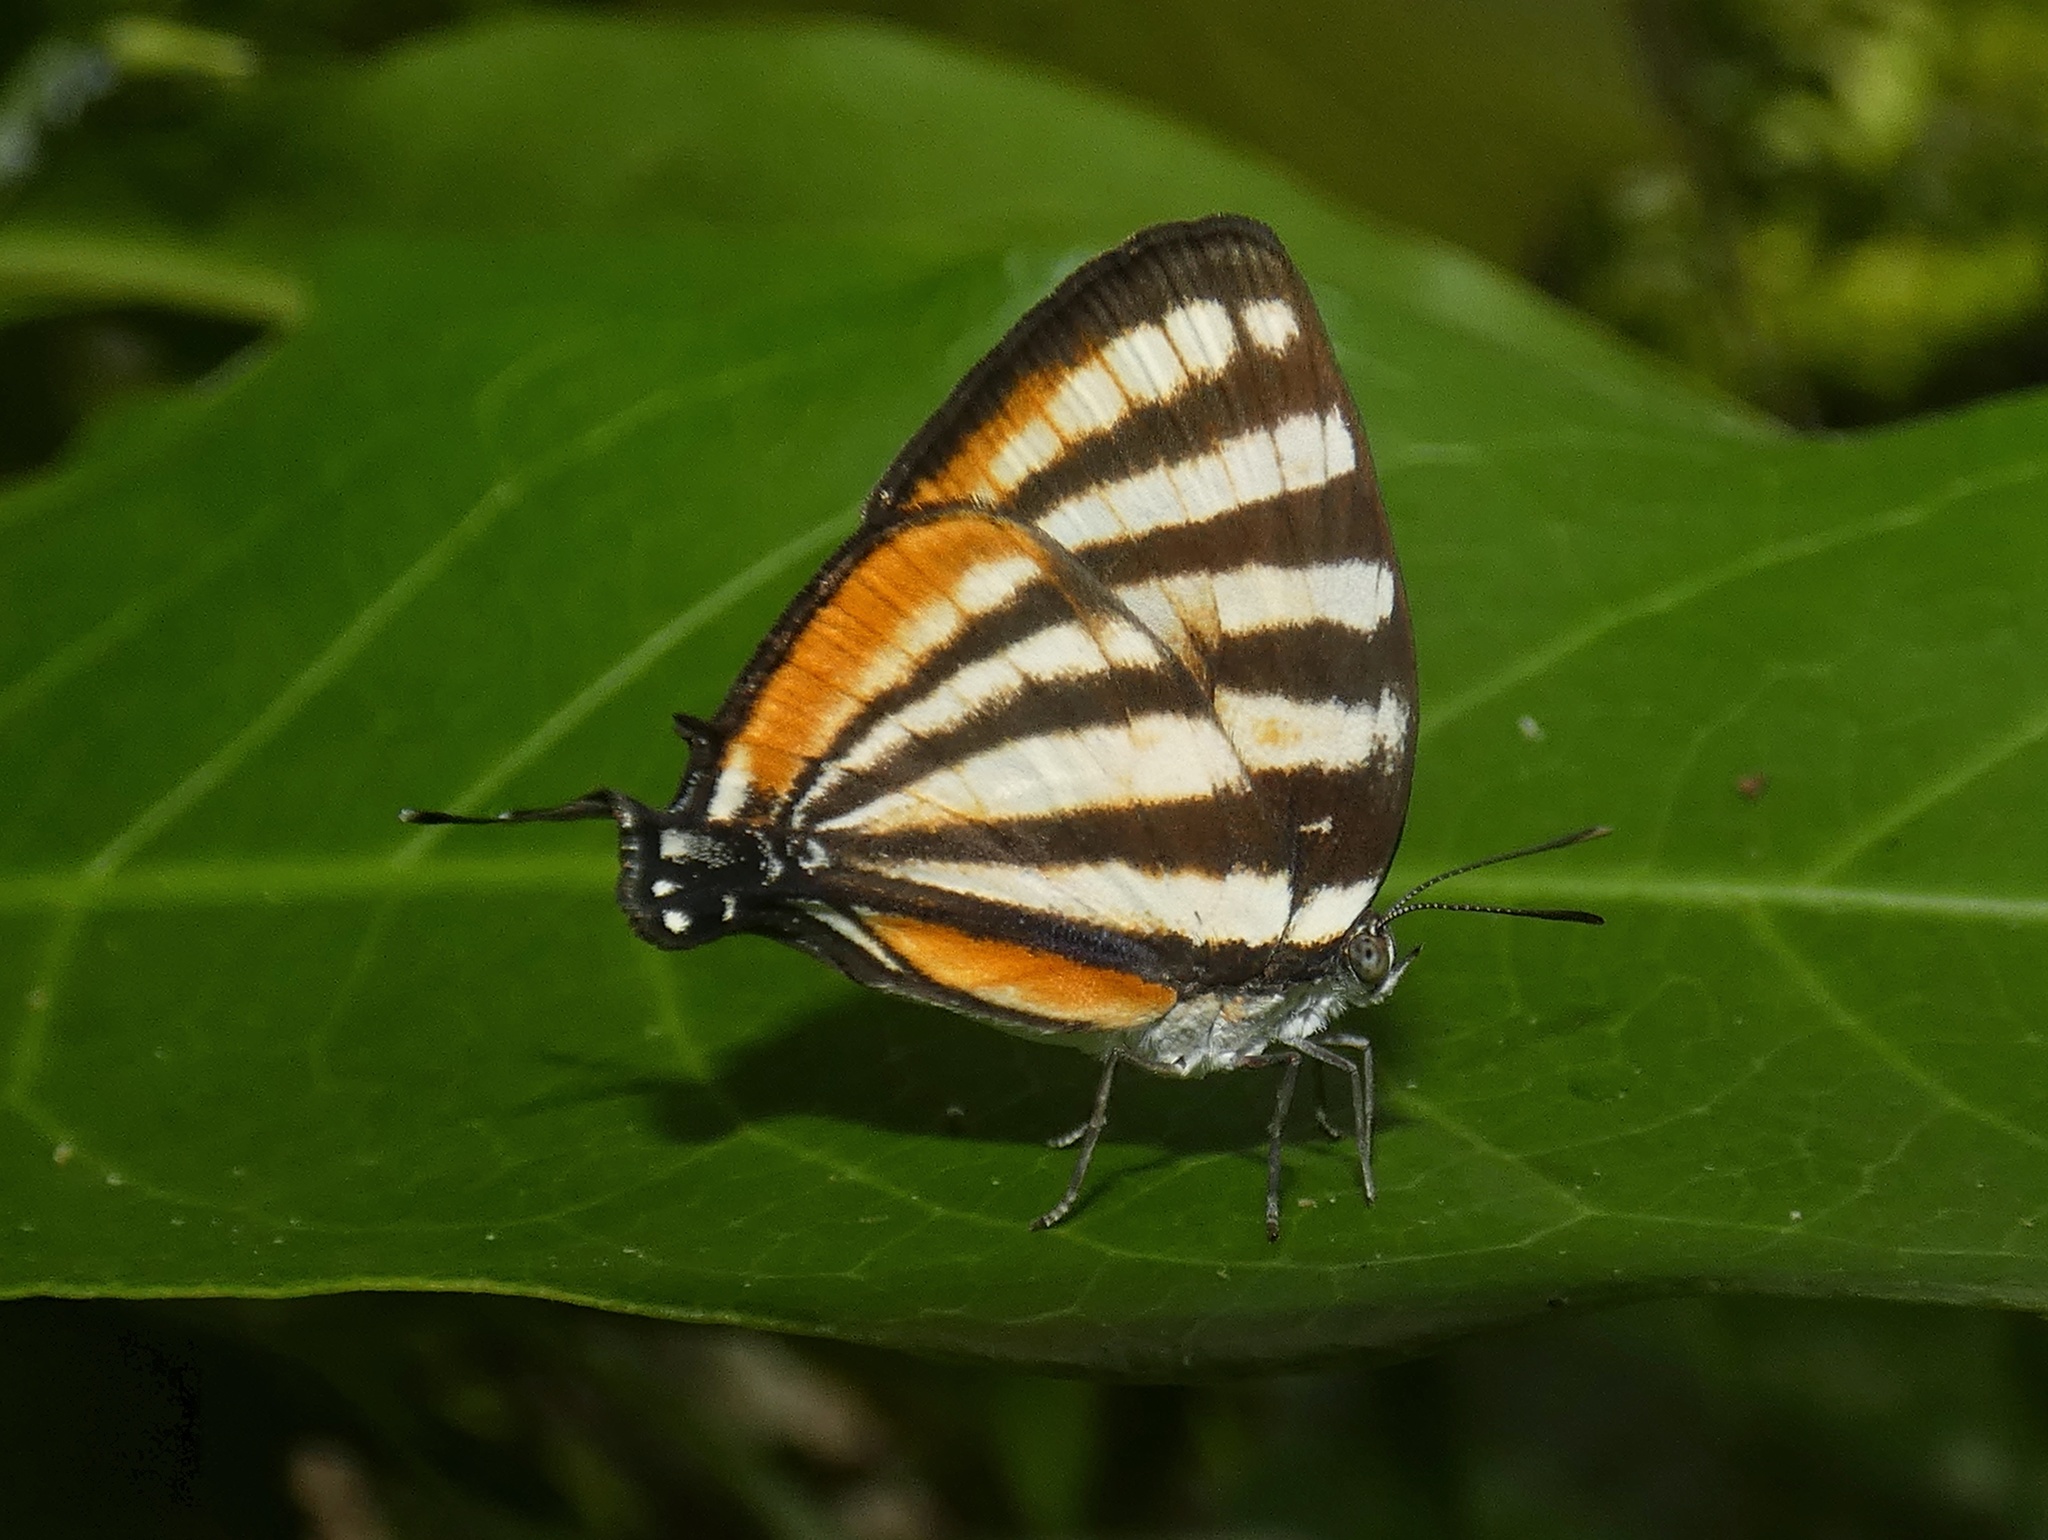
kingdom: Animalia
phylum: Arthropoda
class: Insecta
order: Lepidoptera
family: Lycaenidae
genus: Arawacus
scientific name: Arawacus lincoides
